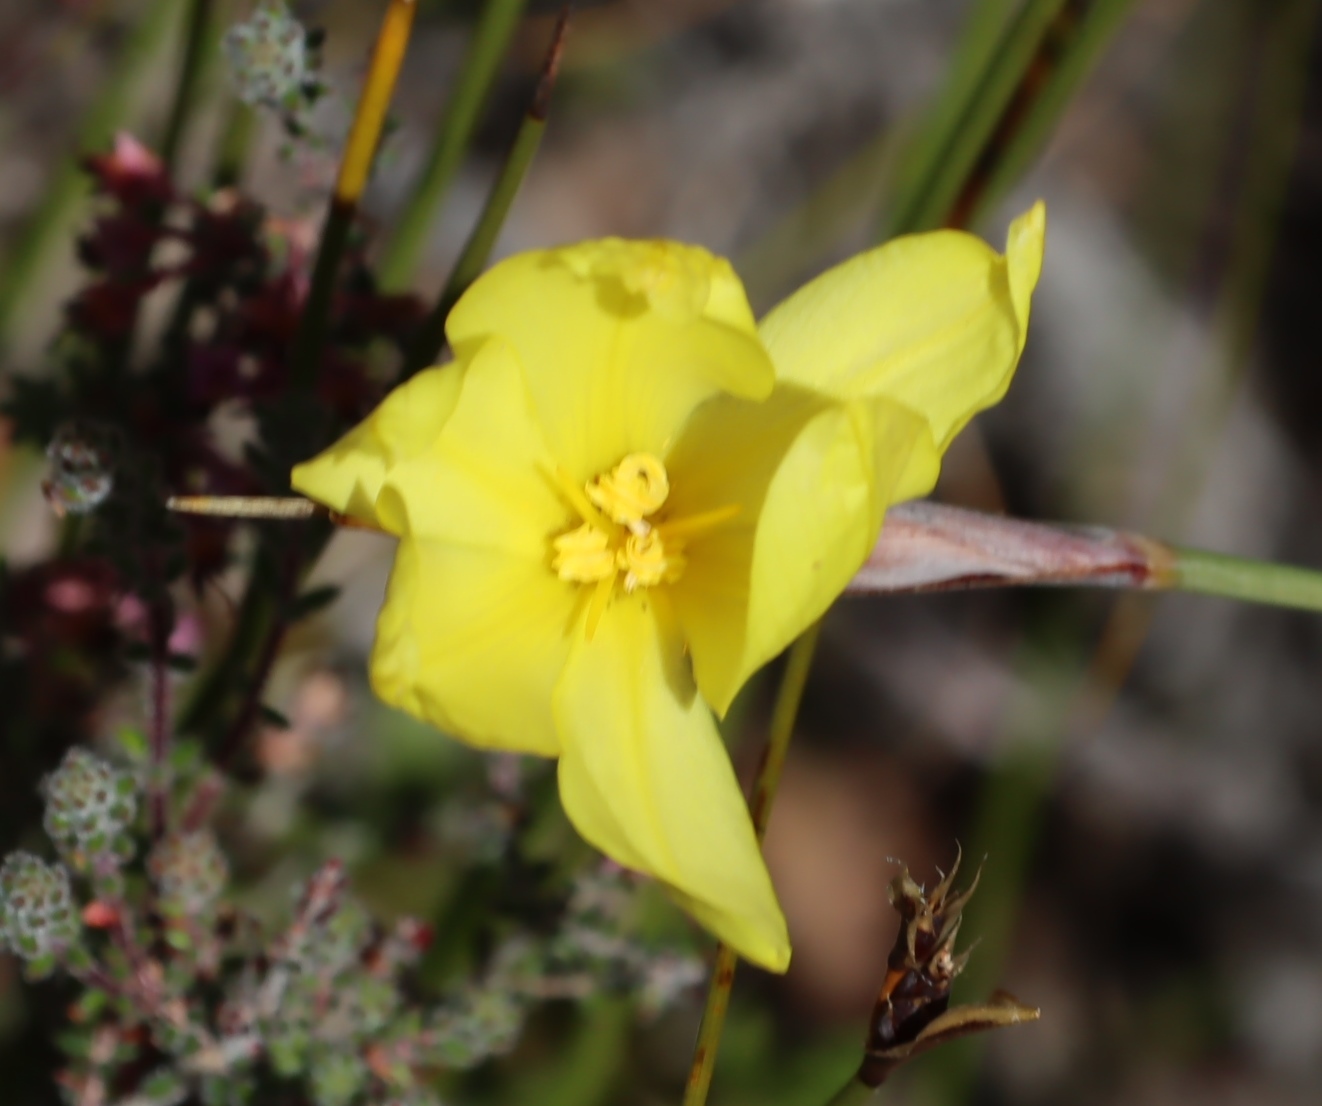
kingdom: Plantae
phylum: Tracheophyta
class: Liliopsida
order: Asparagales
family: Iridaceae
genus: Bobartia
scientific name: Bobartia macrospatha
